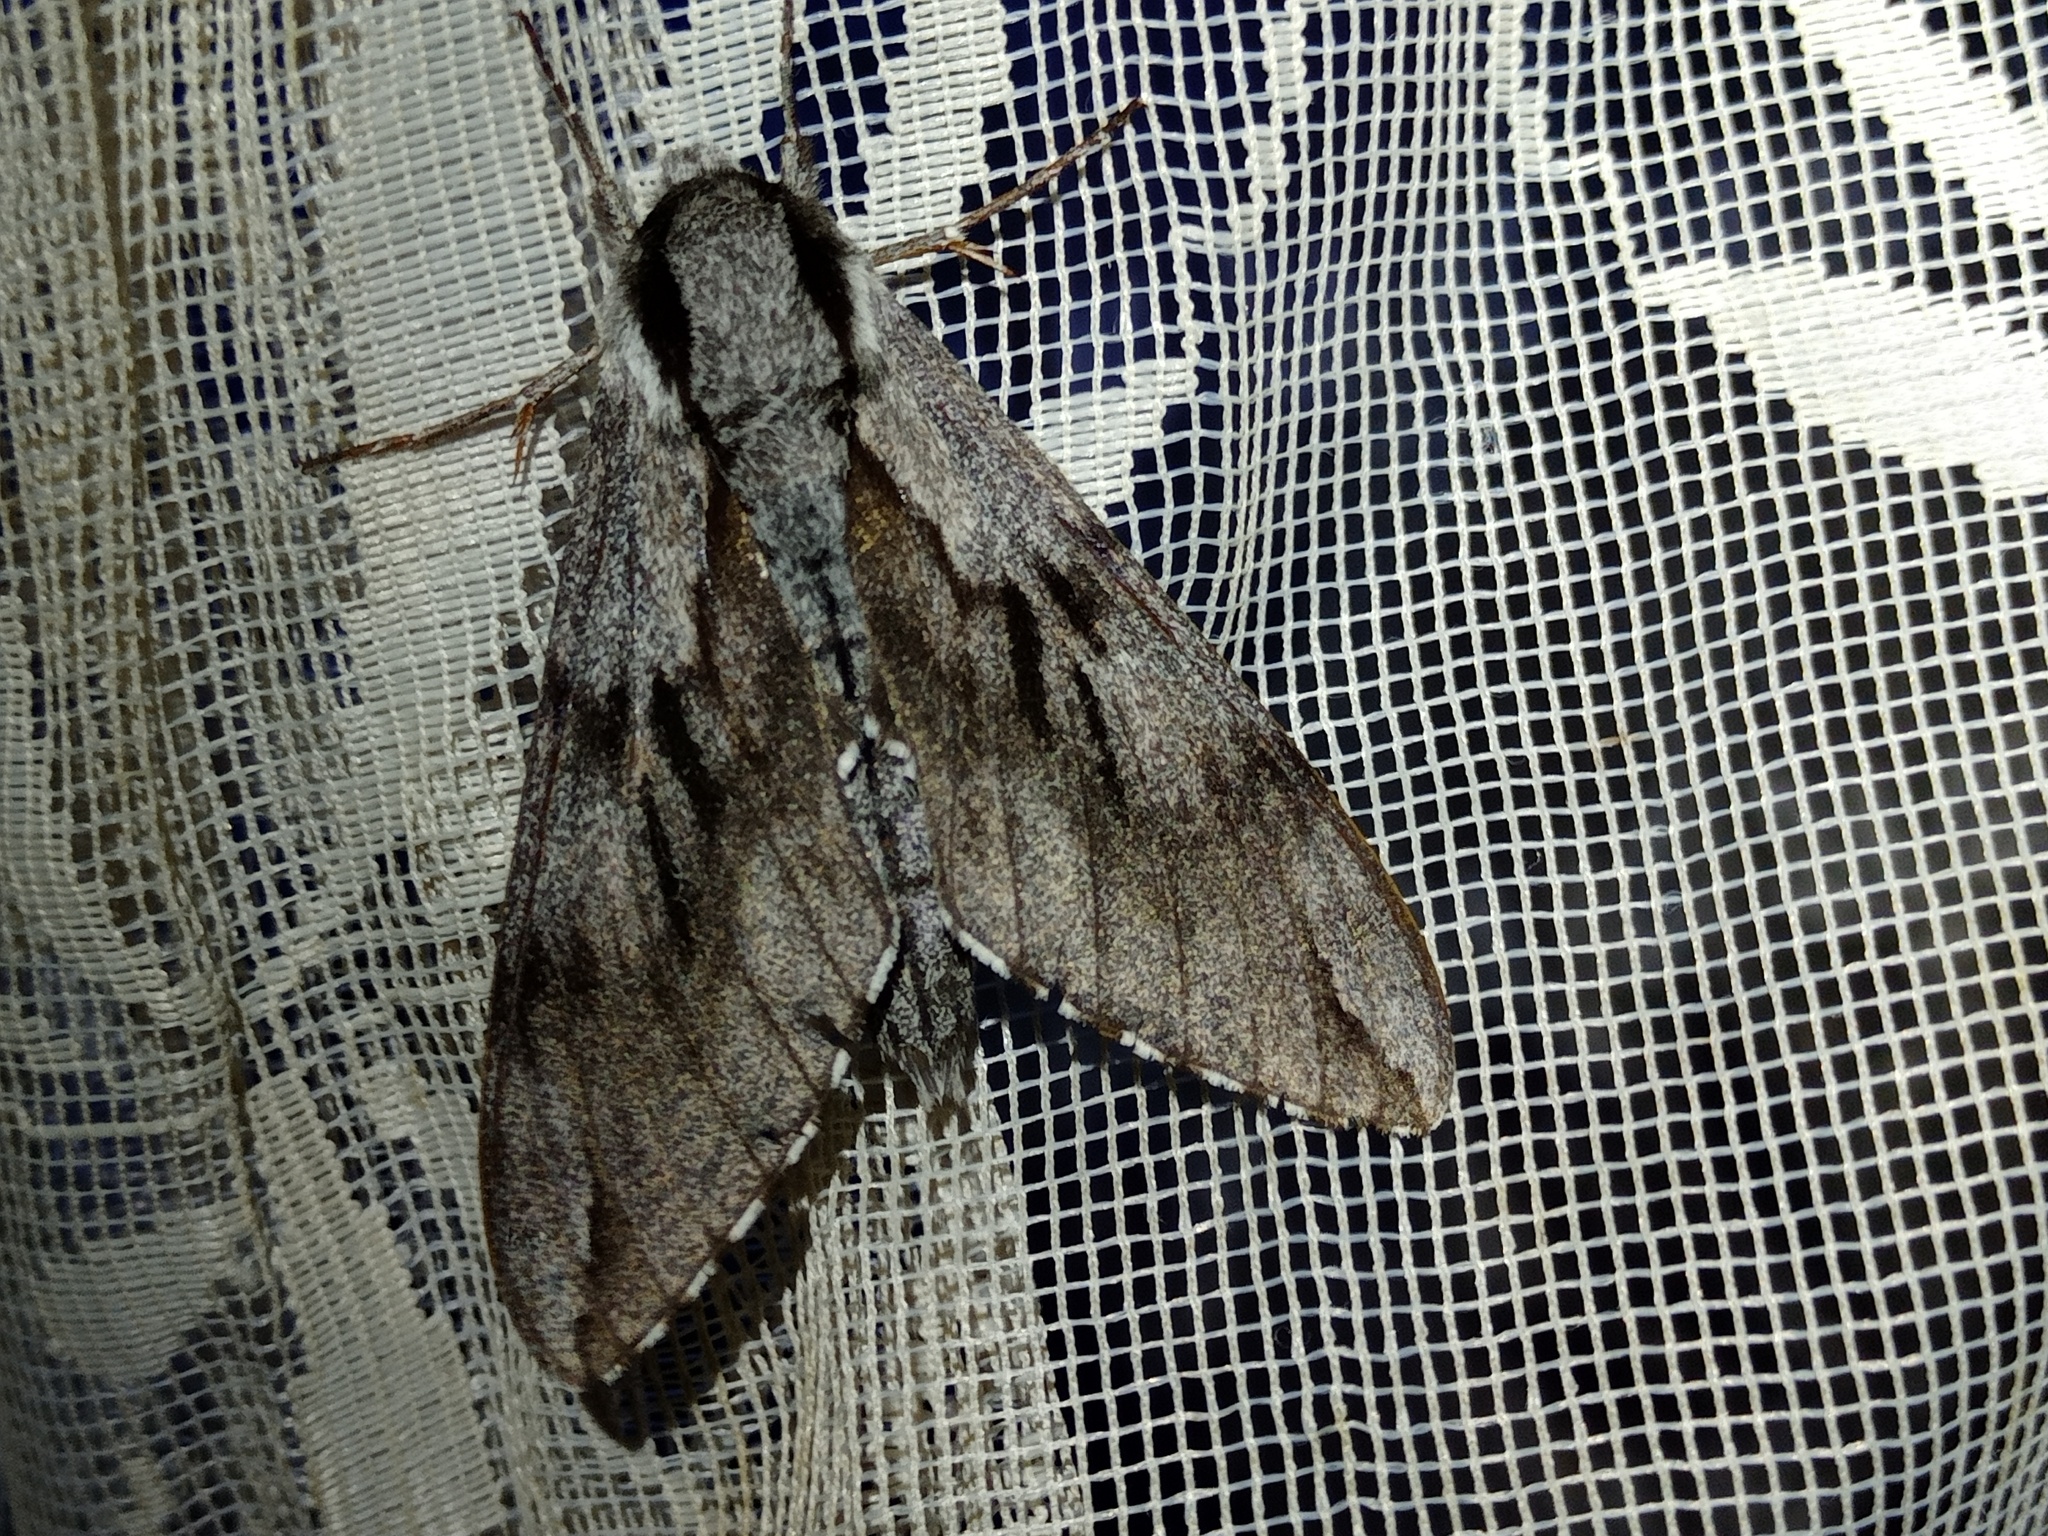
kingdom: Animalia
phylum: Arthropoda
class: Insecta
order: Lepidoptera
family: Sphingidae
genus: Sphinx
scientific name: Sphinx pinastri
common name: Pine hawk-moth
